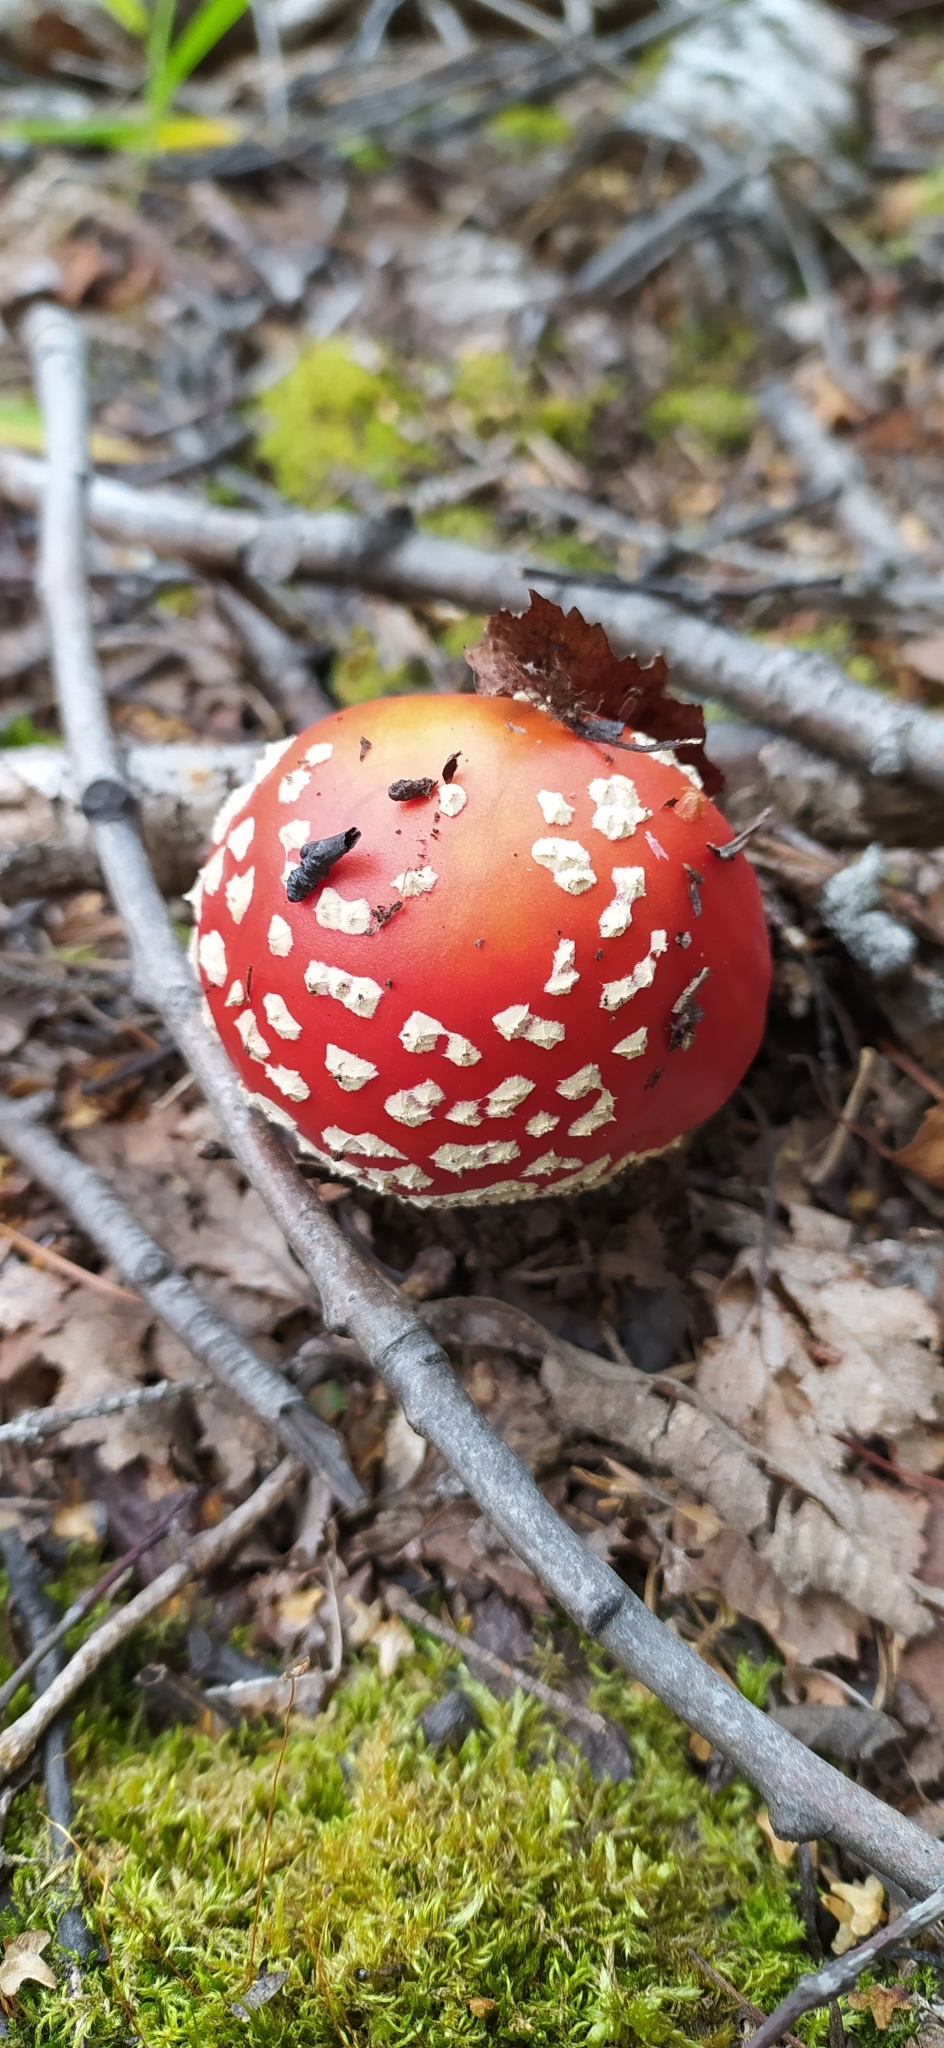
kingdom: Fungi
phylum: Basidiomycota
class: Agaricomycetes
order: Agaricales
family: Amanitaceae
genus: Amanita
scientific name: Amanita muscaria
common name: Fly agaric
